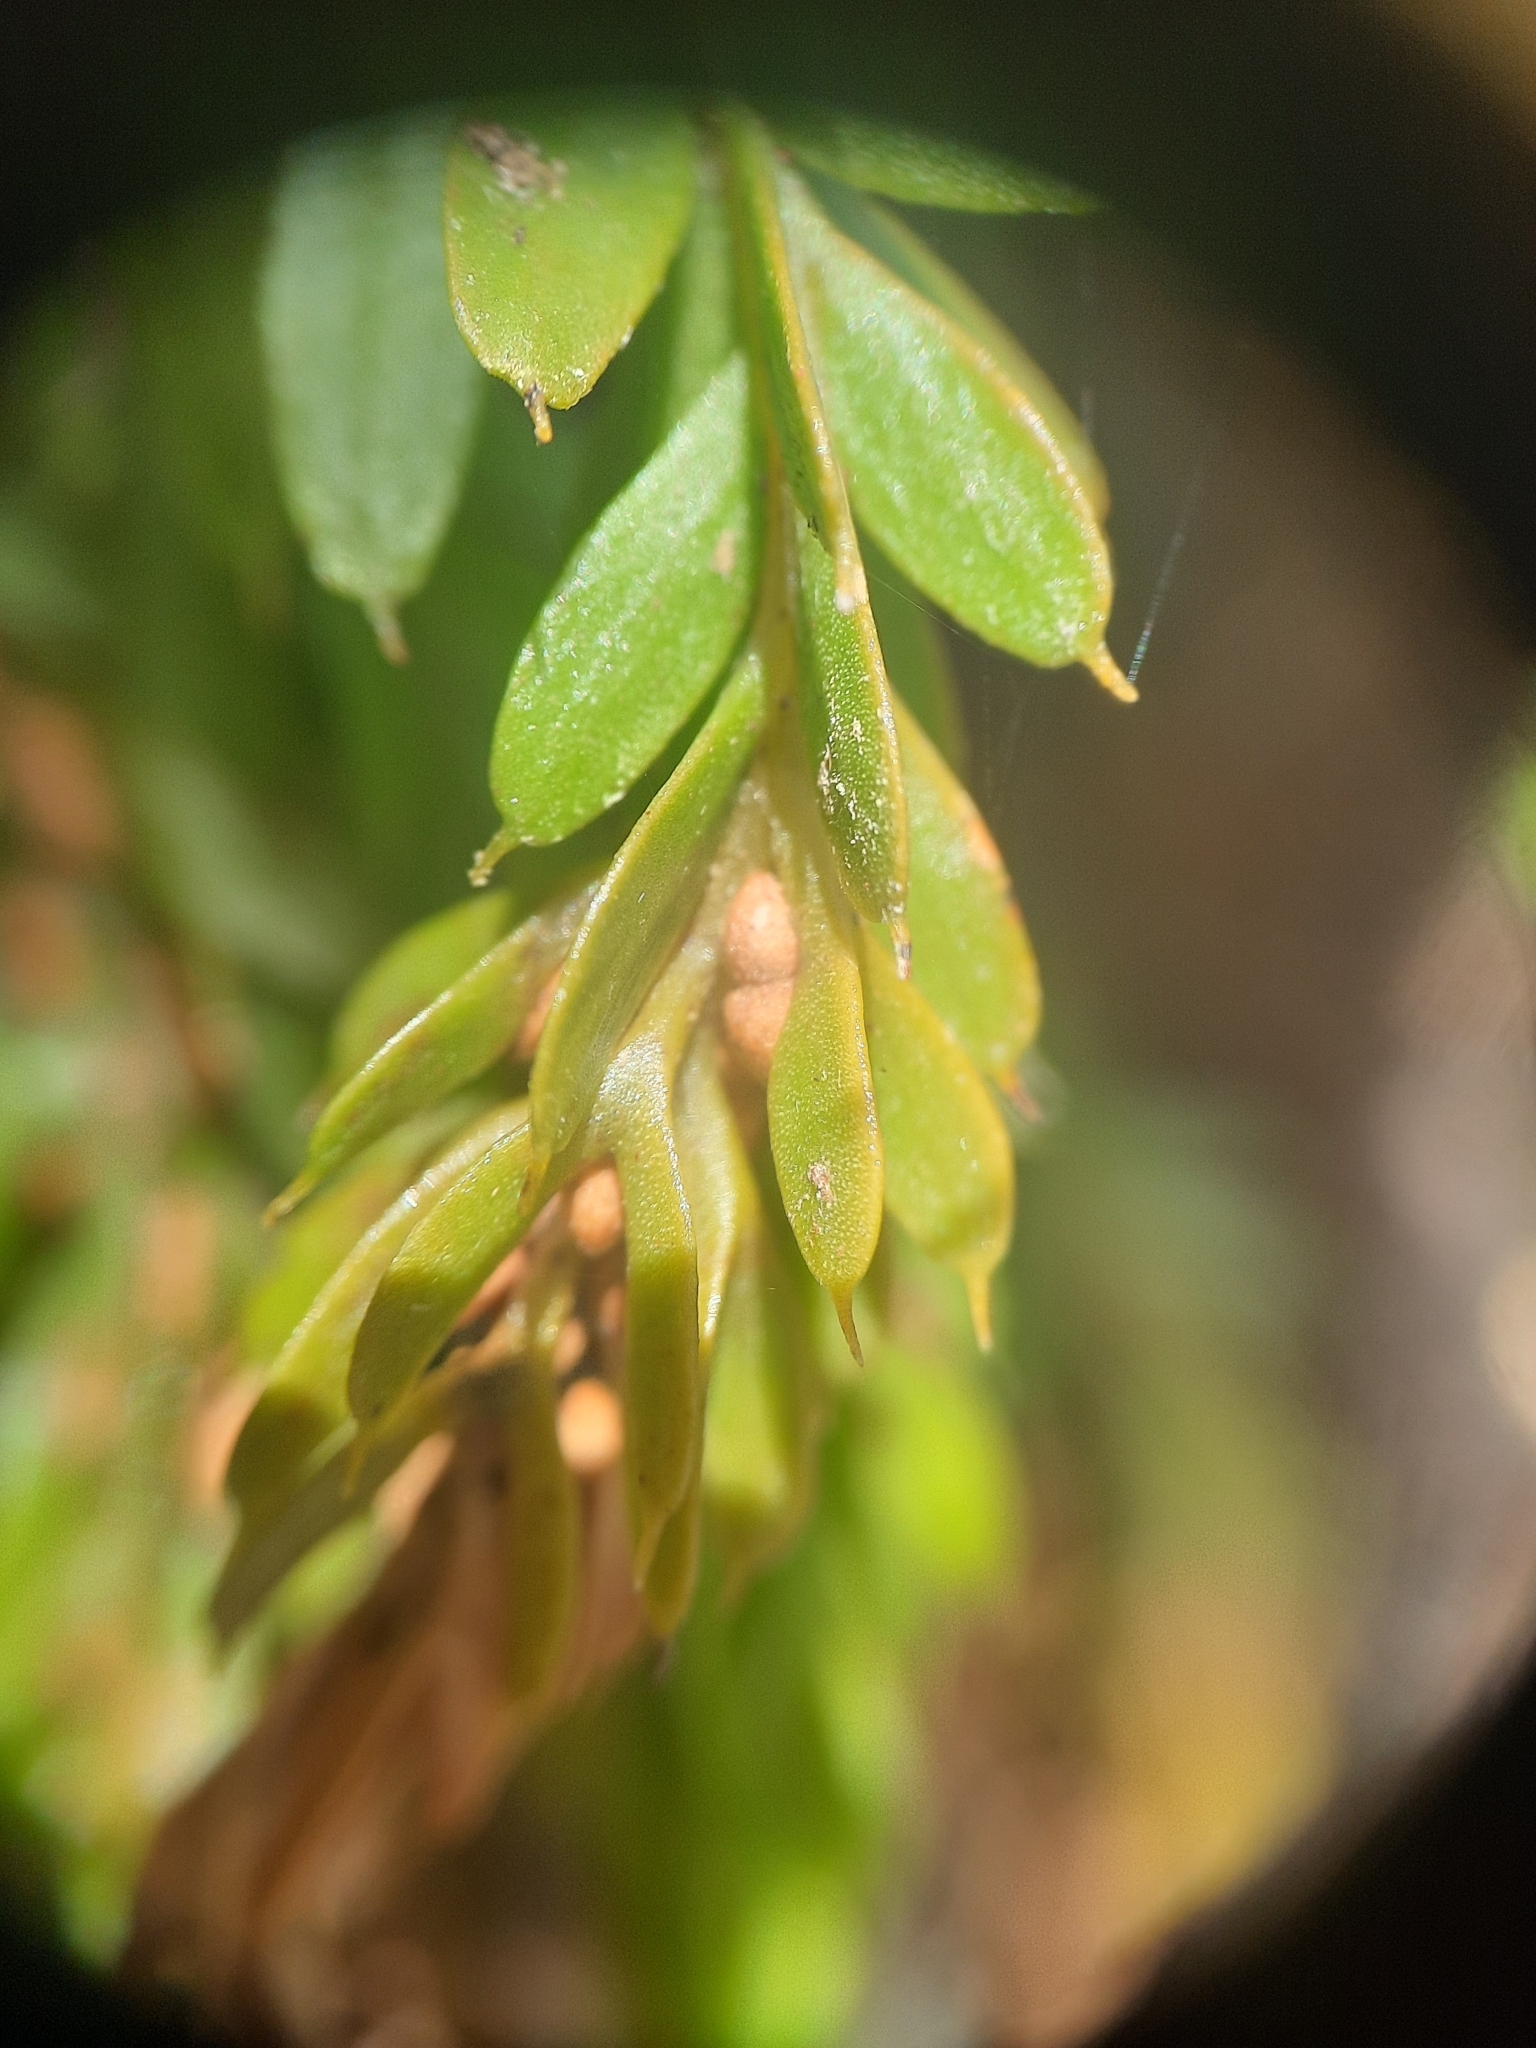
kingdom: Plantae
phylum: Tracheophyta
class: Polypodiopsida
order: Psilotales
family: Psilotaceae
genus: Tmesipteris
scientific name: Tmesipteris tannensis
